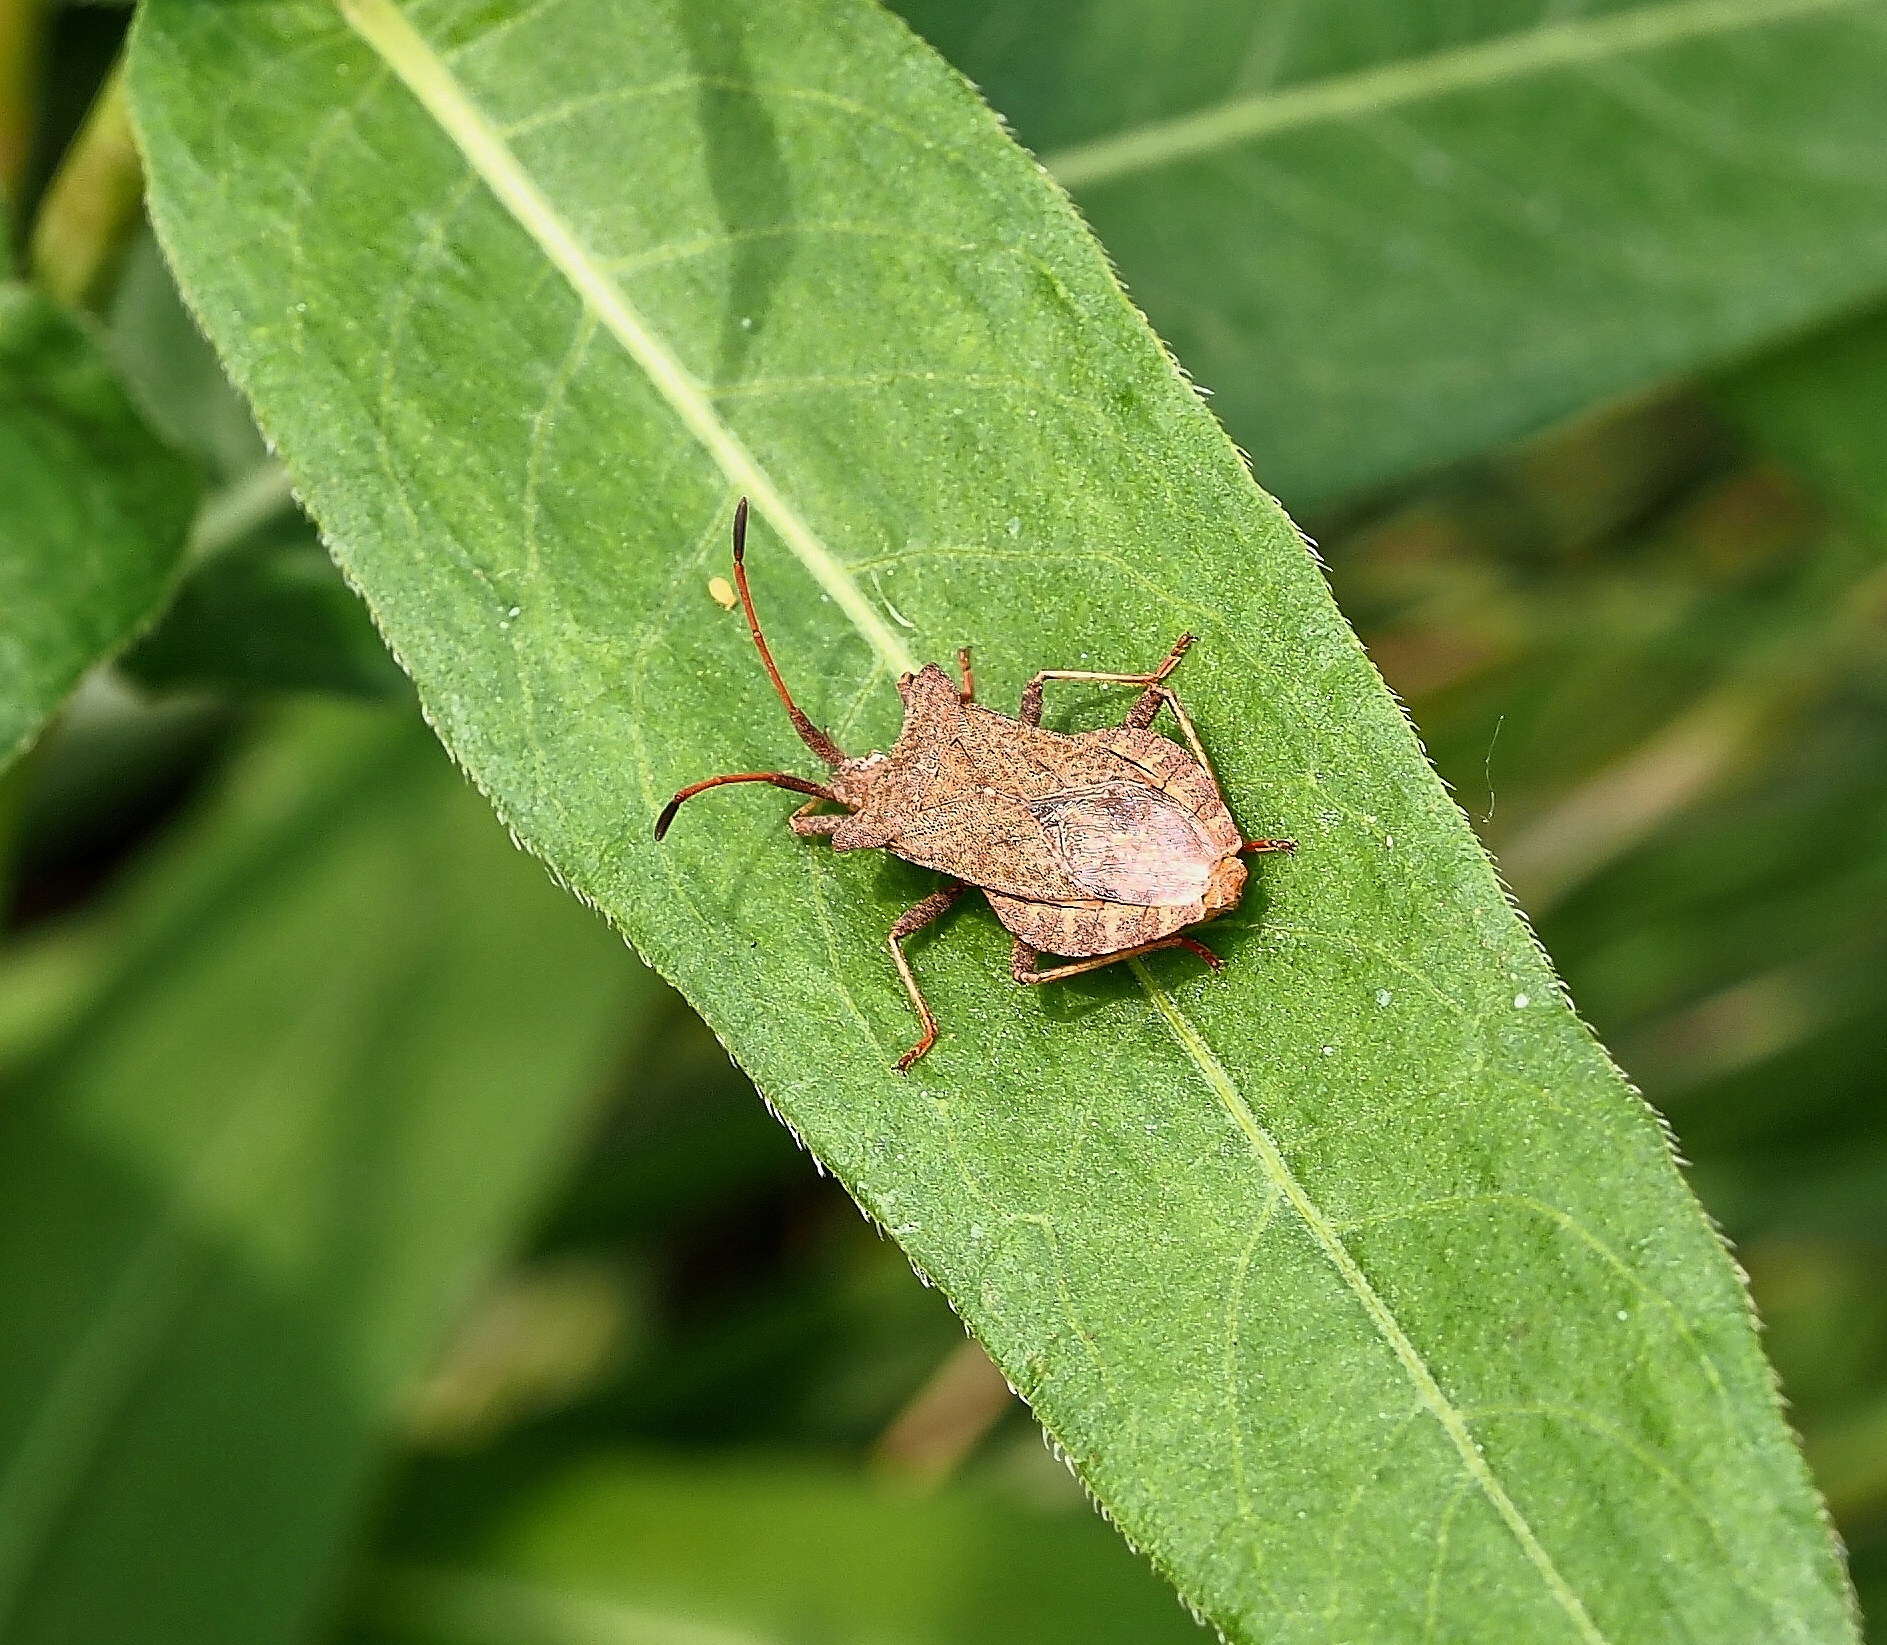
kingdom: Animalia
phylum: Arthropoda
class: Insecta
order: Hemiptera
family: Coreidae
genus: Coreus
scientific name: Coreus marginatus
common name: Dock bug
